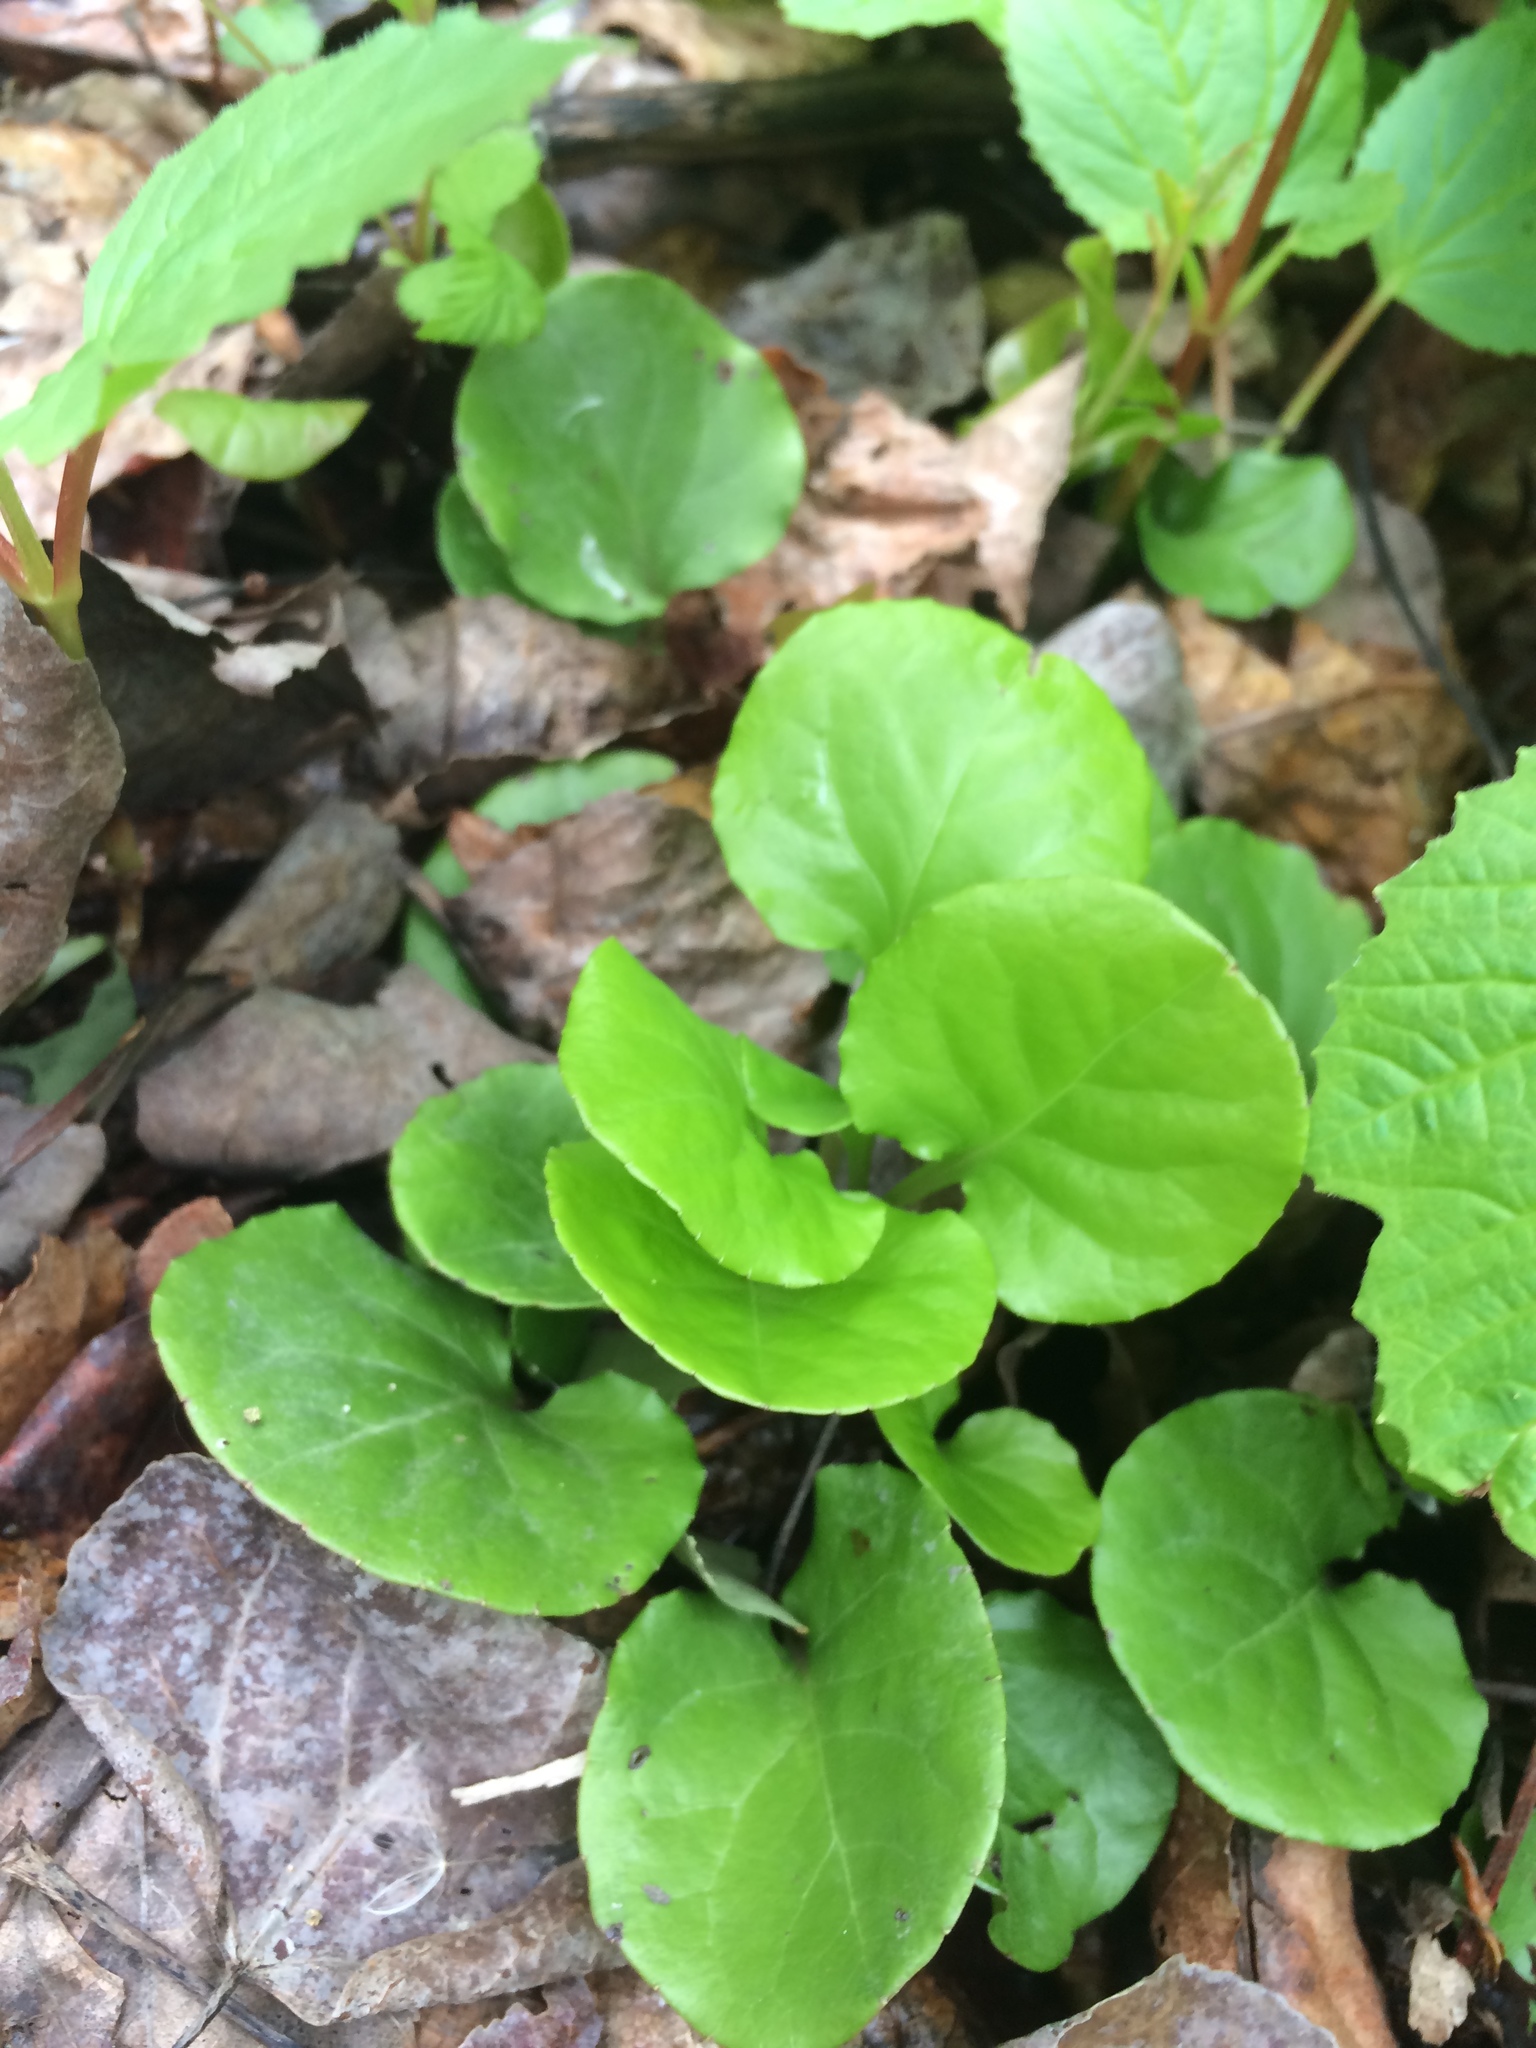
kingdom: Plantae
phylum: Tracheophyta
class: Magnoliopsida
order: Ericales
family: Ericaceae
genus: Pyrola
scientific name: Pyrola asarifolia
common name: Bog wintergreen
